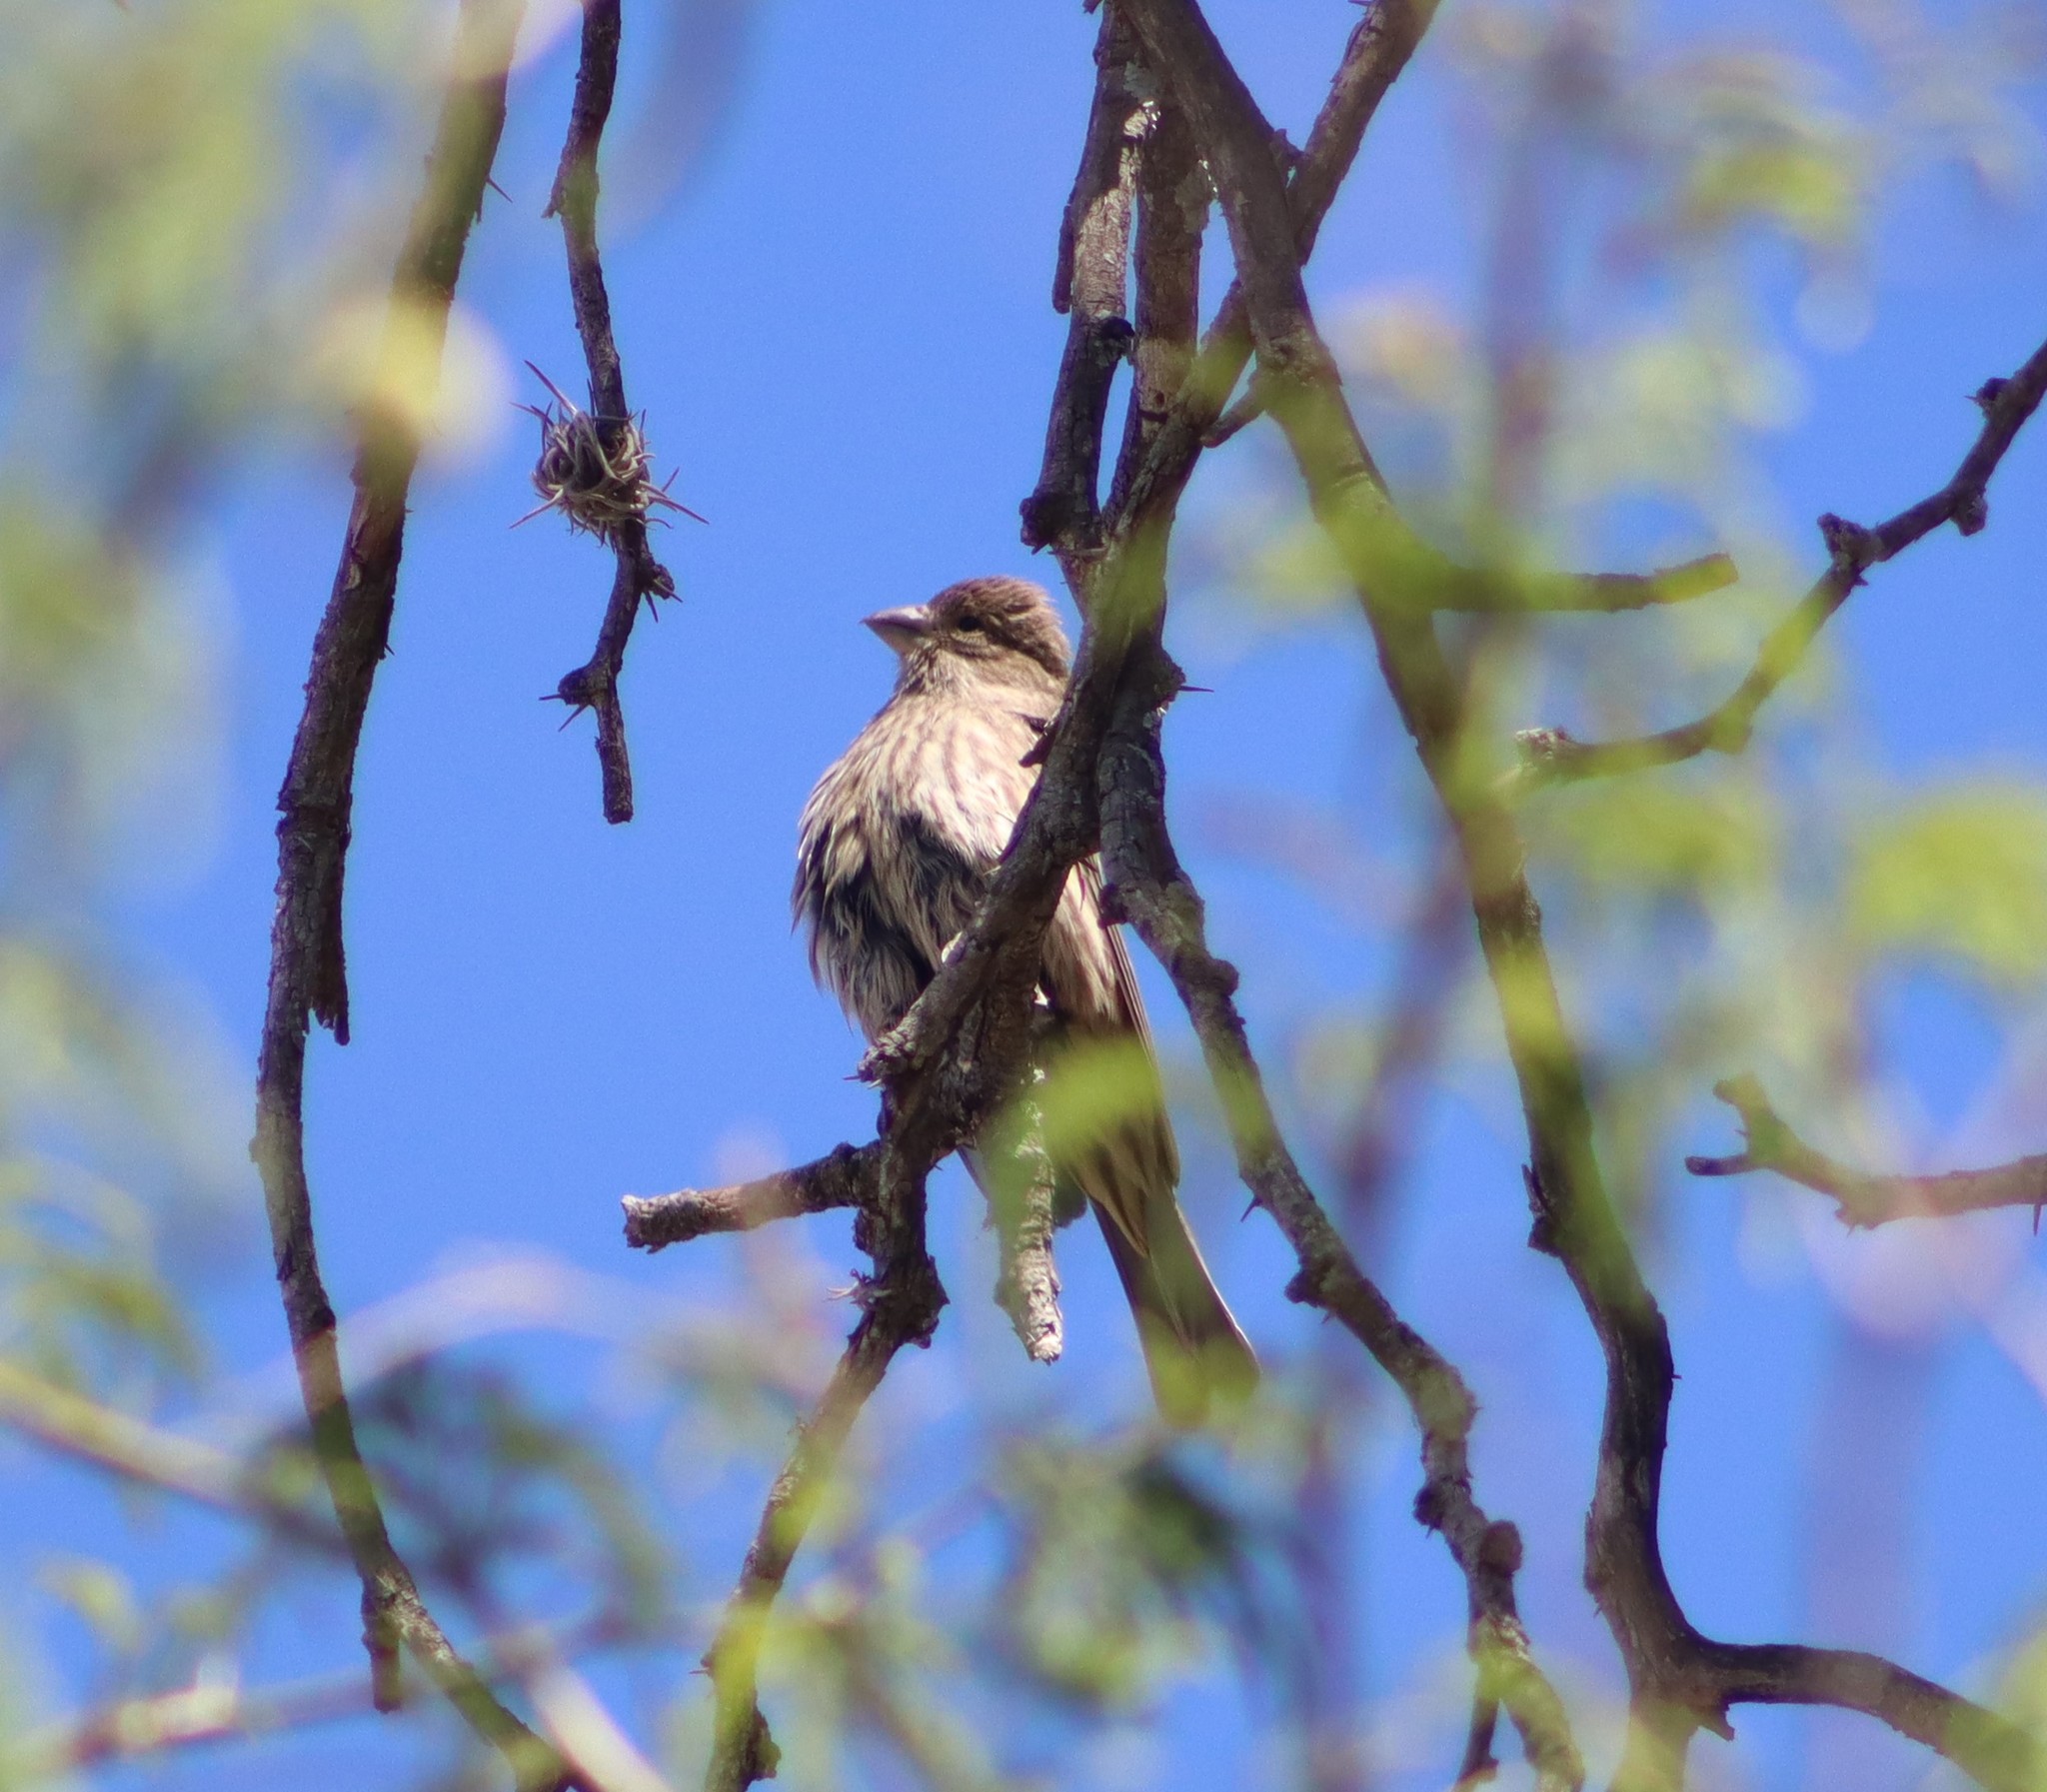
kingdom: Animalia
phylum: Chordata
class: Aves
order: Passeriformes
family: Fringillidae
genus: Haemorhous
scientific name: Haemorhous mexicanus
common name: House finch
